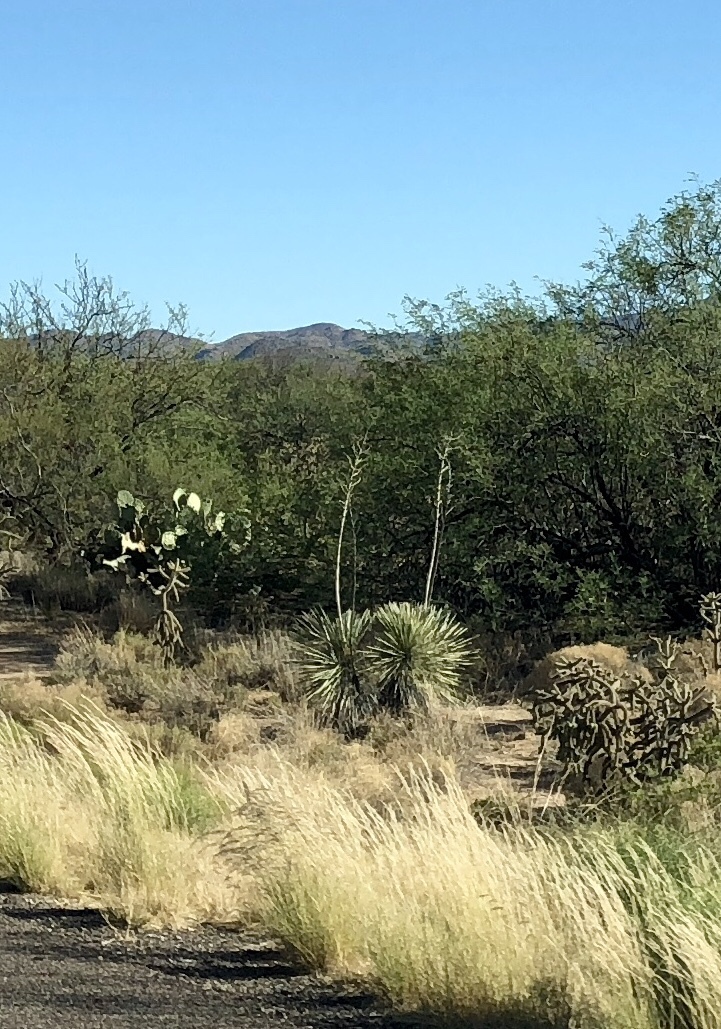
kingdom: Plantae
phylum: Tracheophyta
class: Liliopsida
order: Asparagales
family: Asparagaceae
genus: Yucca
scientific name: Yucca elata
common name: Palmella
